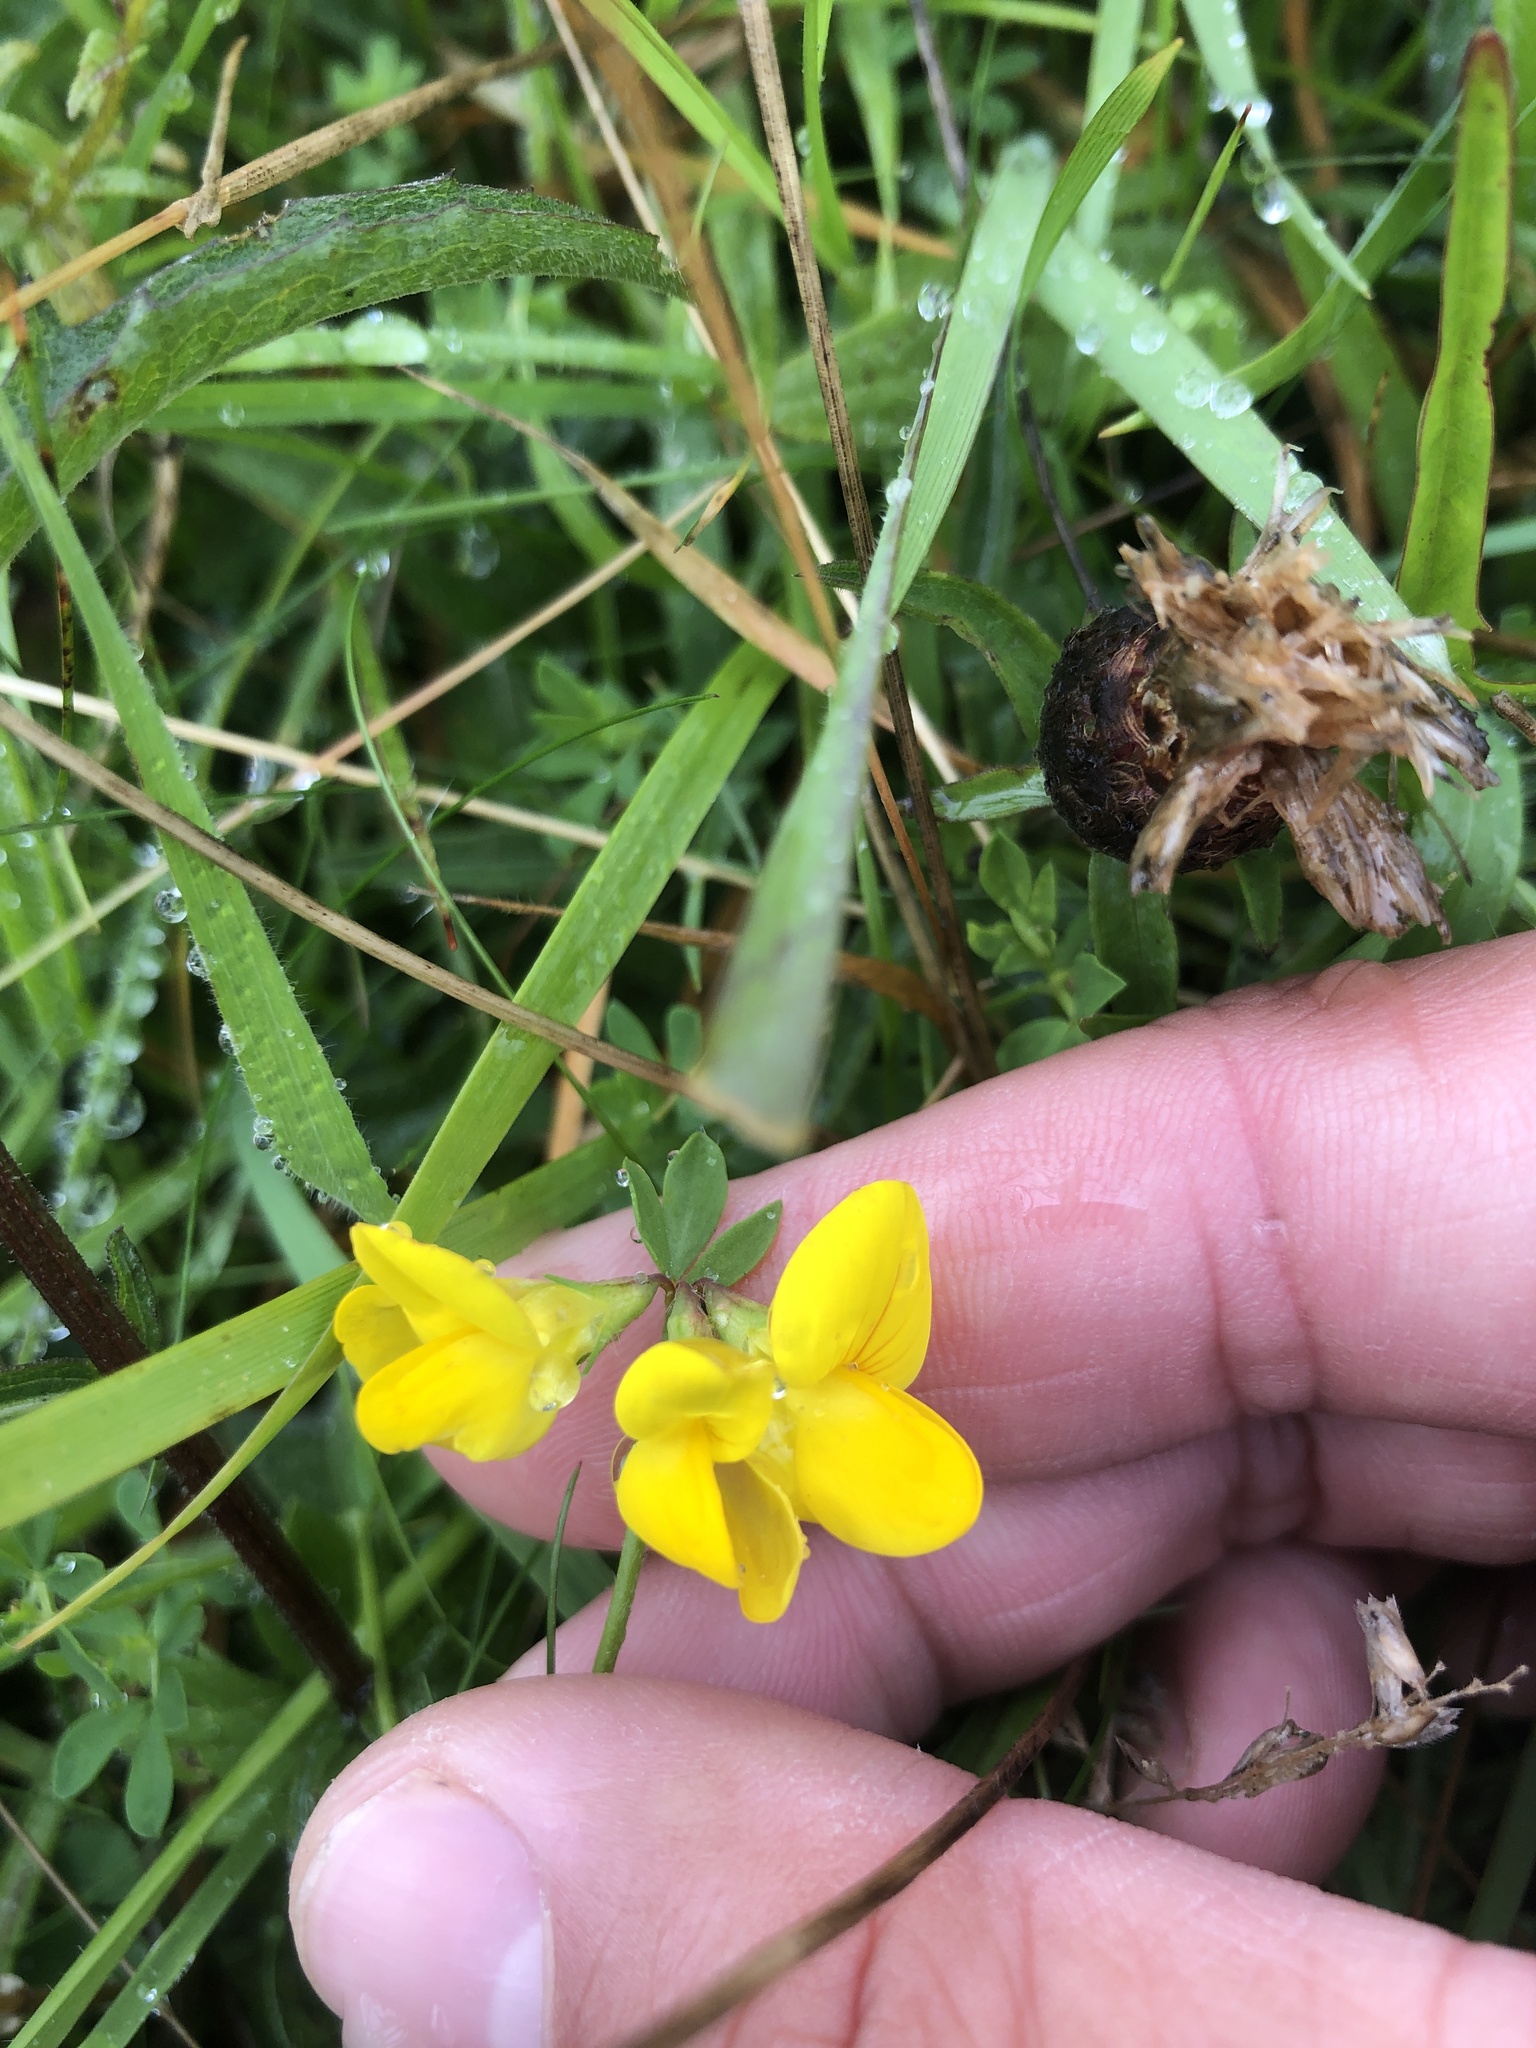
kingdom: Plantae
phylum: Tracheophyta
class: Magnoliopsida
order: Fabales
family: Fabaceae
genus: Lotus
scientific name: Lotus corniculatus
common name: Common bird's-foot-trefoil
